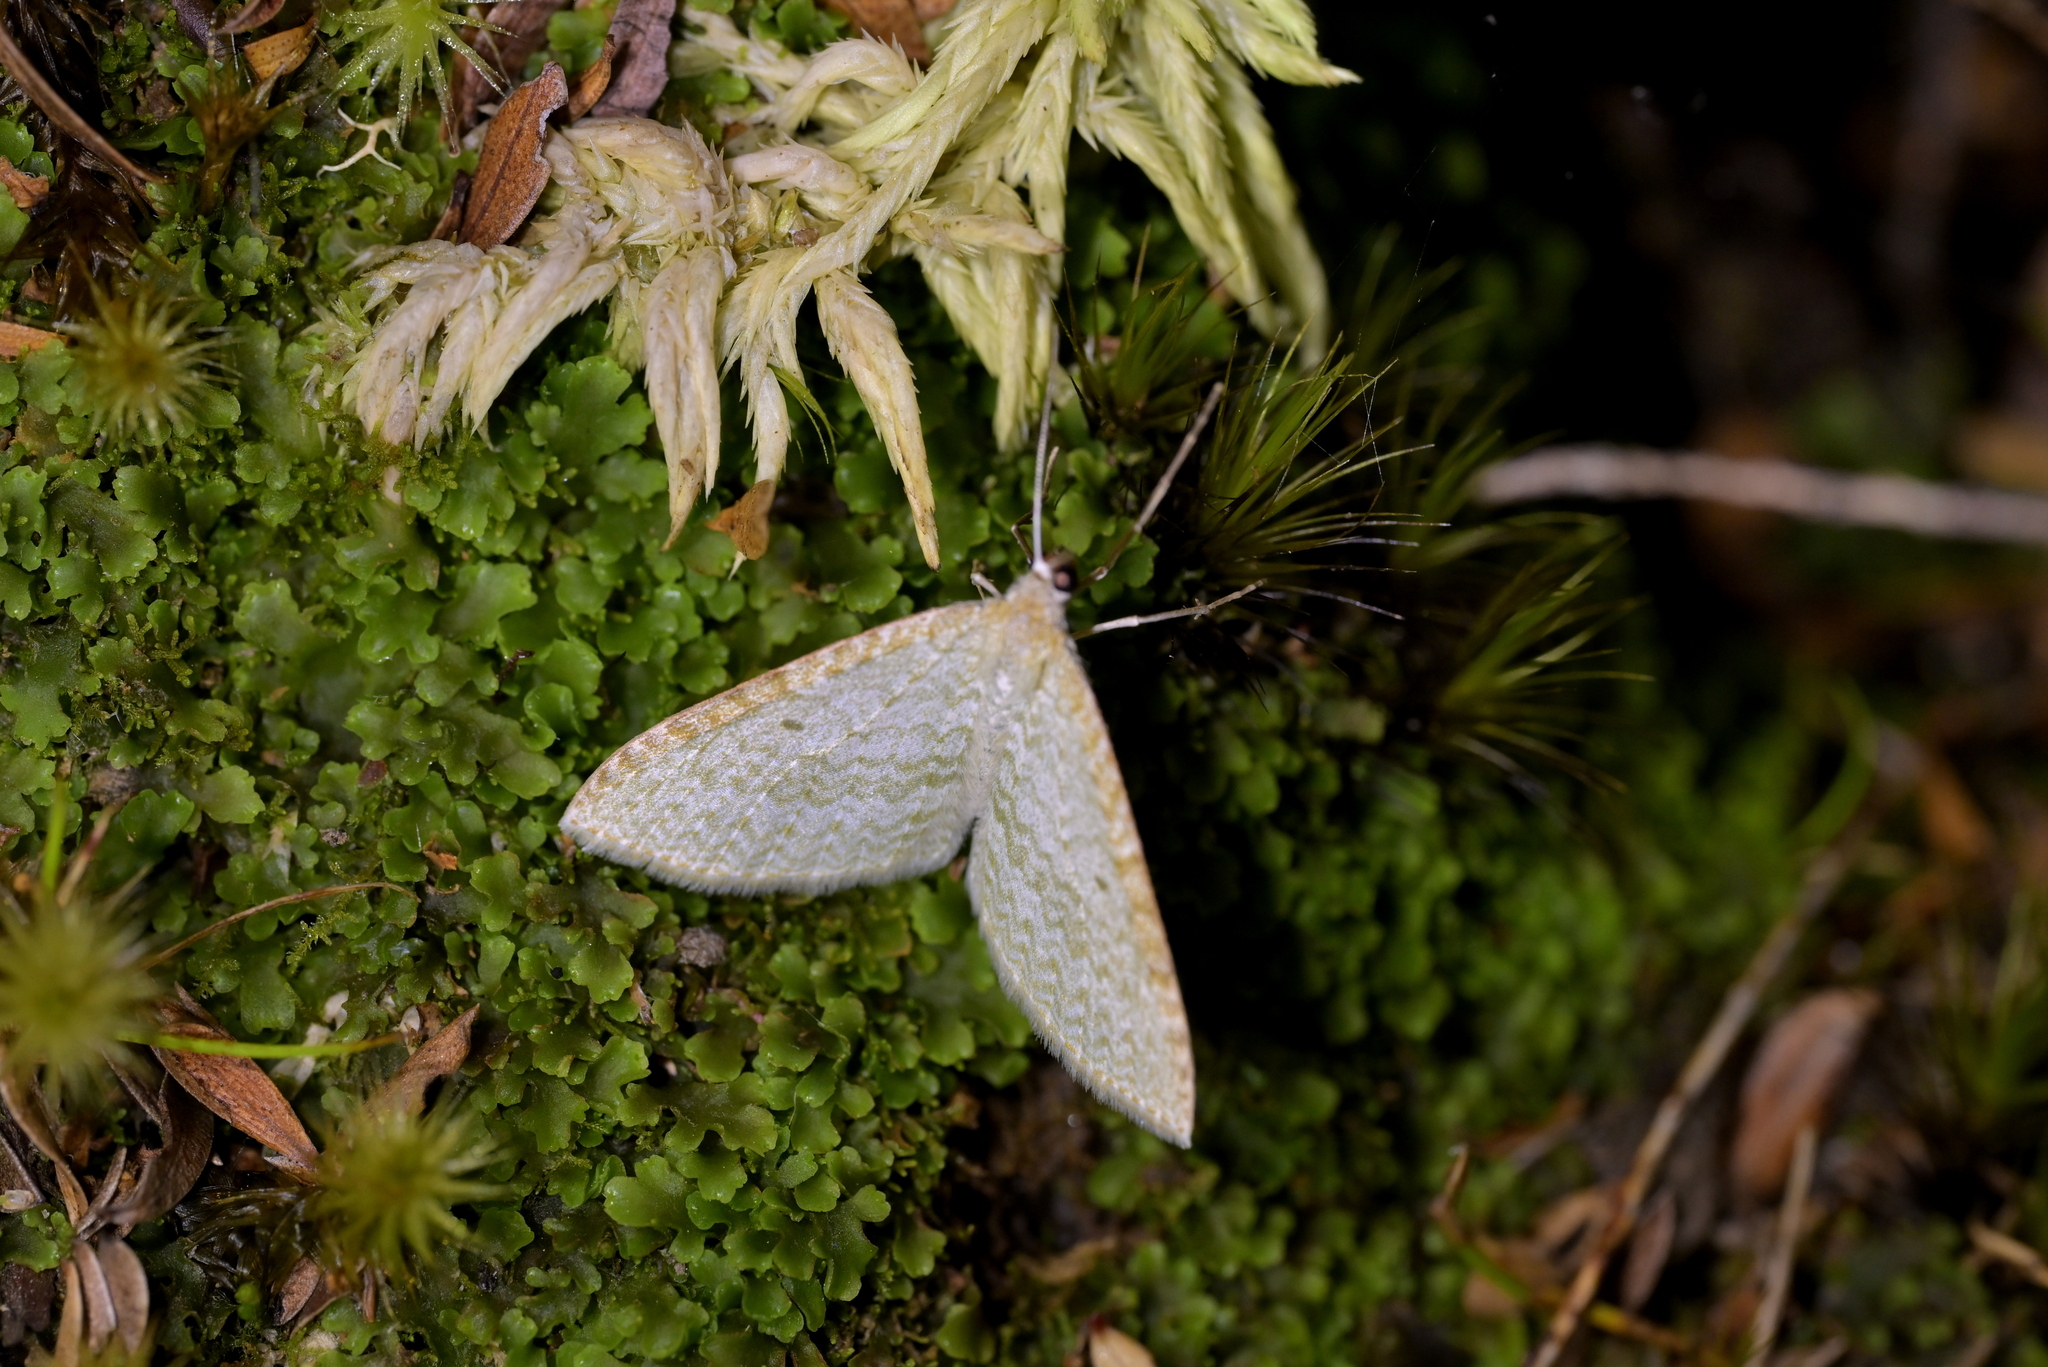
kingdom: Animalia
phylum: Arthropoda
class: Insecta
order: Lepidoptera
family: Geometridae
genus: Poecilasthena
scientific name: Poecilasthena pulchraria
